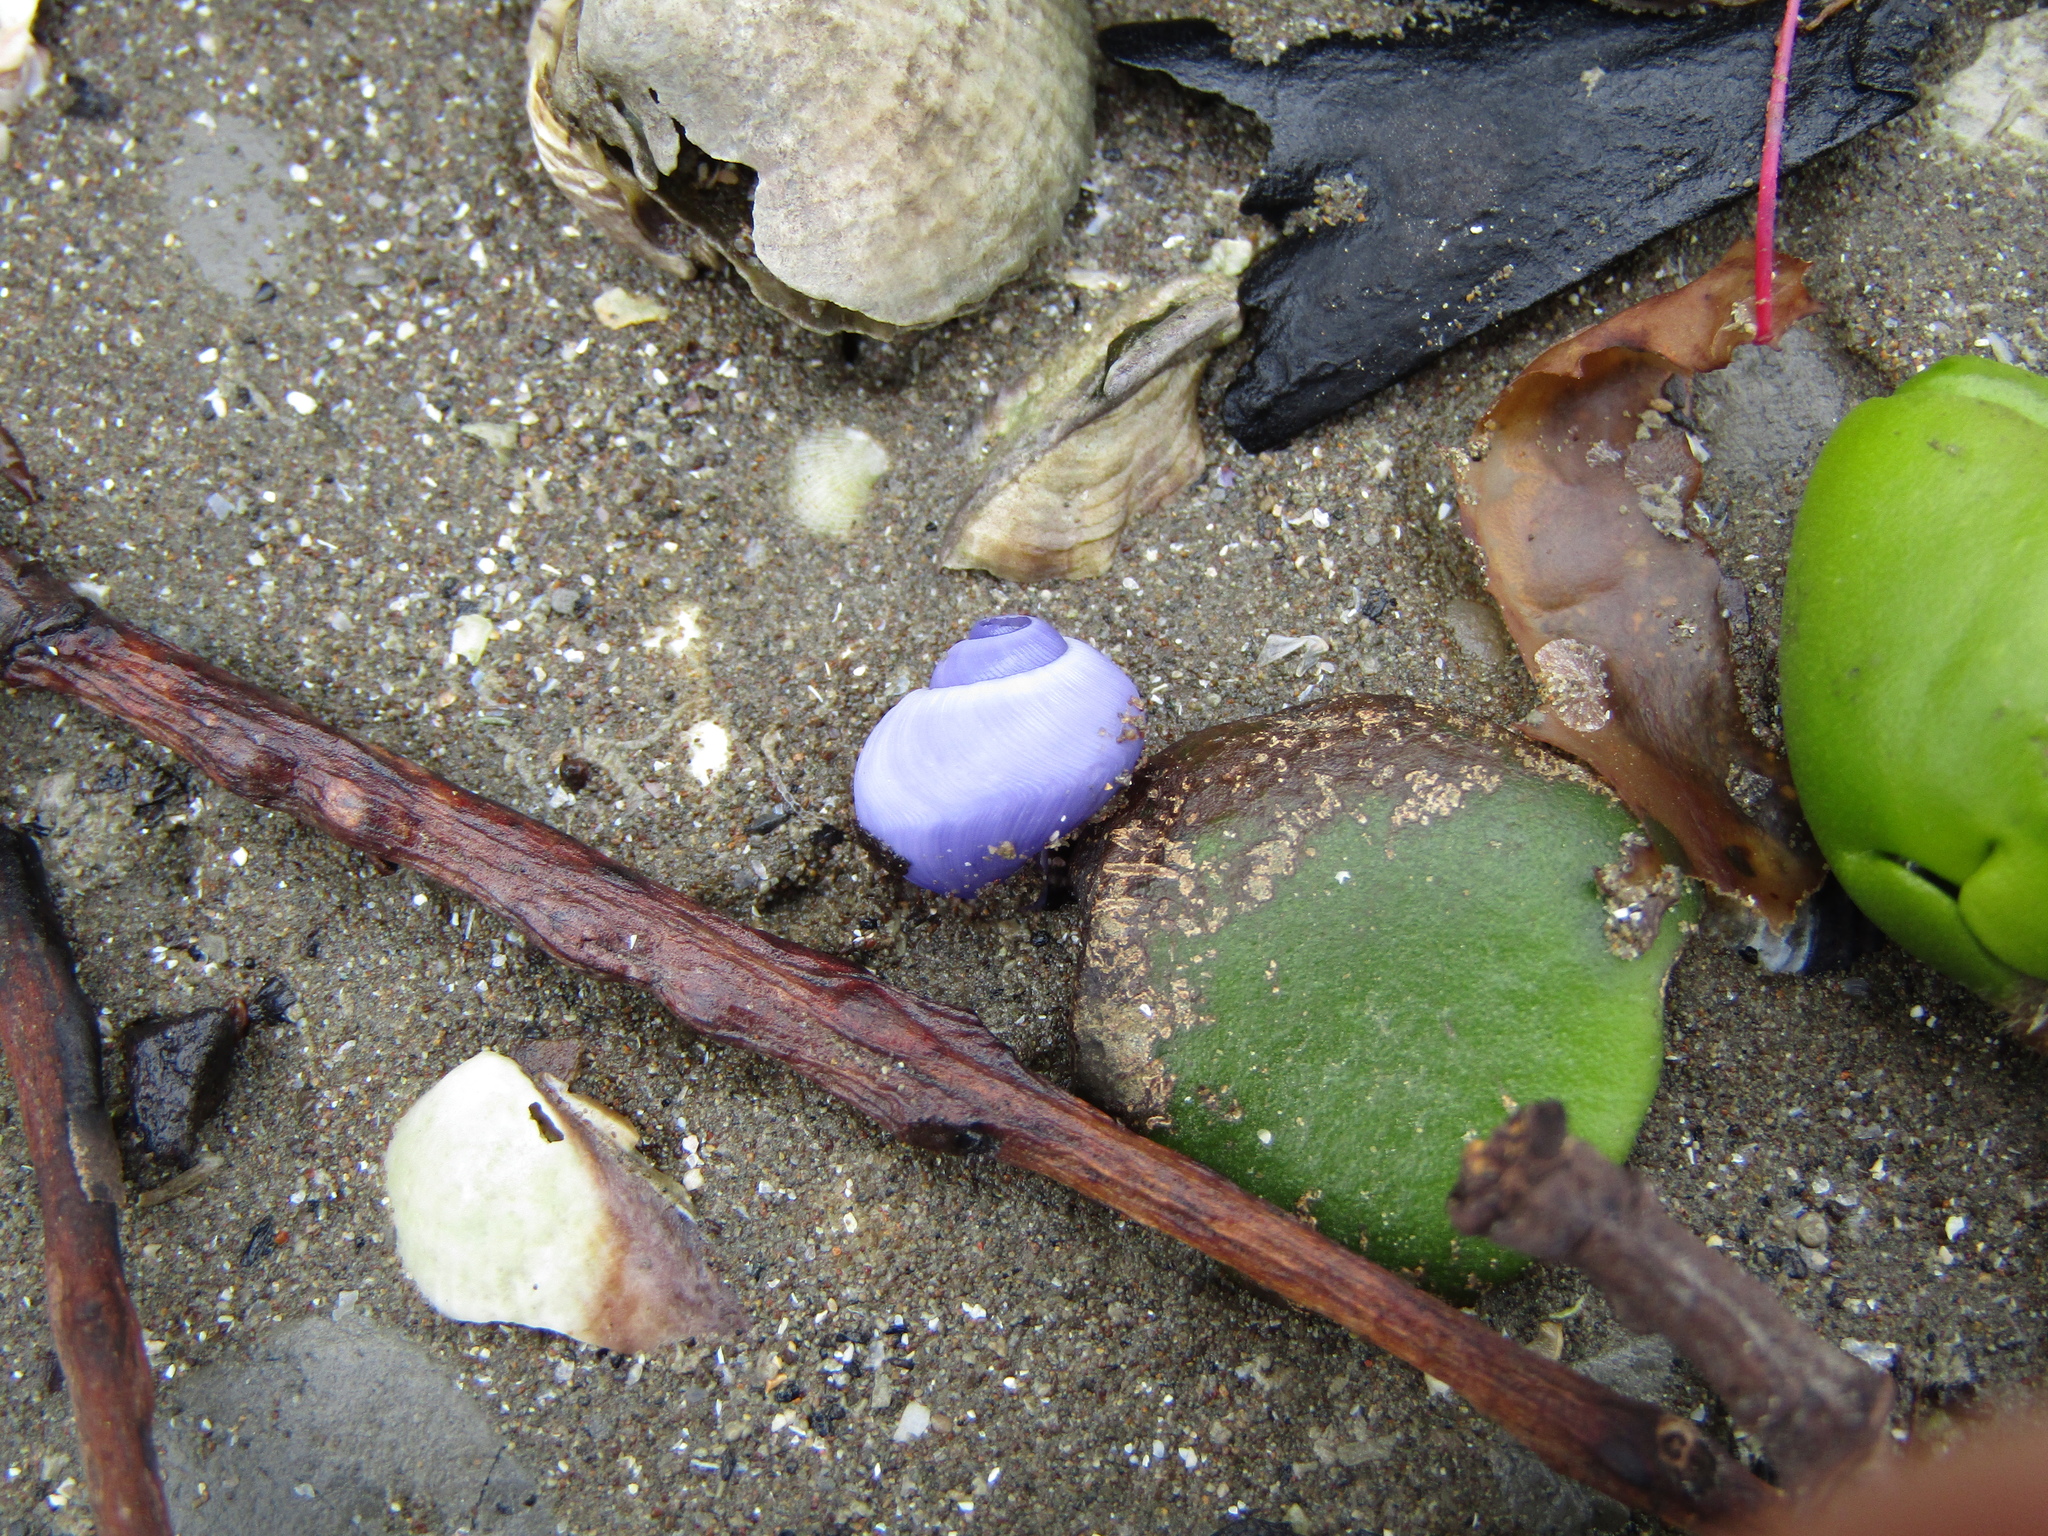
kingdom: Animalia
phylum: Mollusca
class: Gastropoda
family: Epitoniidae
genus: Janthina
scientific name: Janthina exigua
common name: Dwarf janthina
